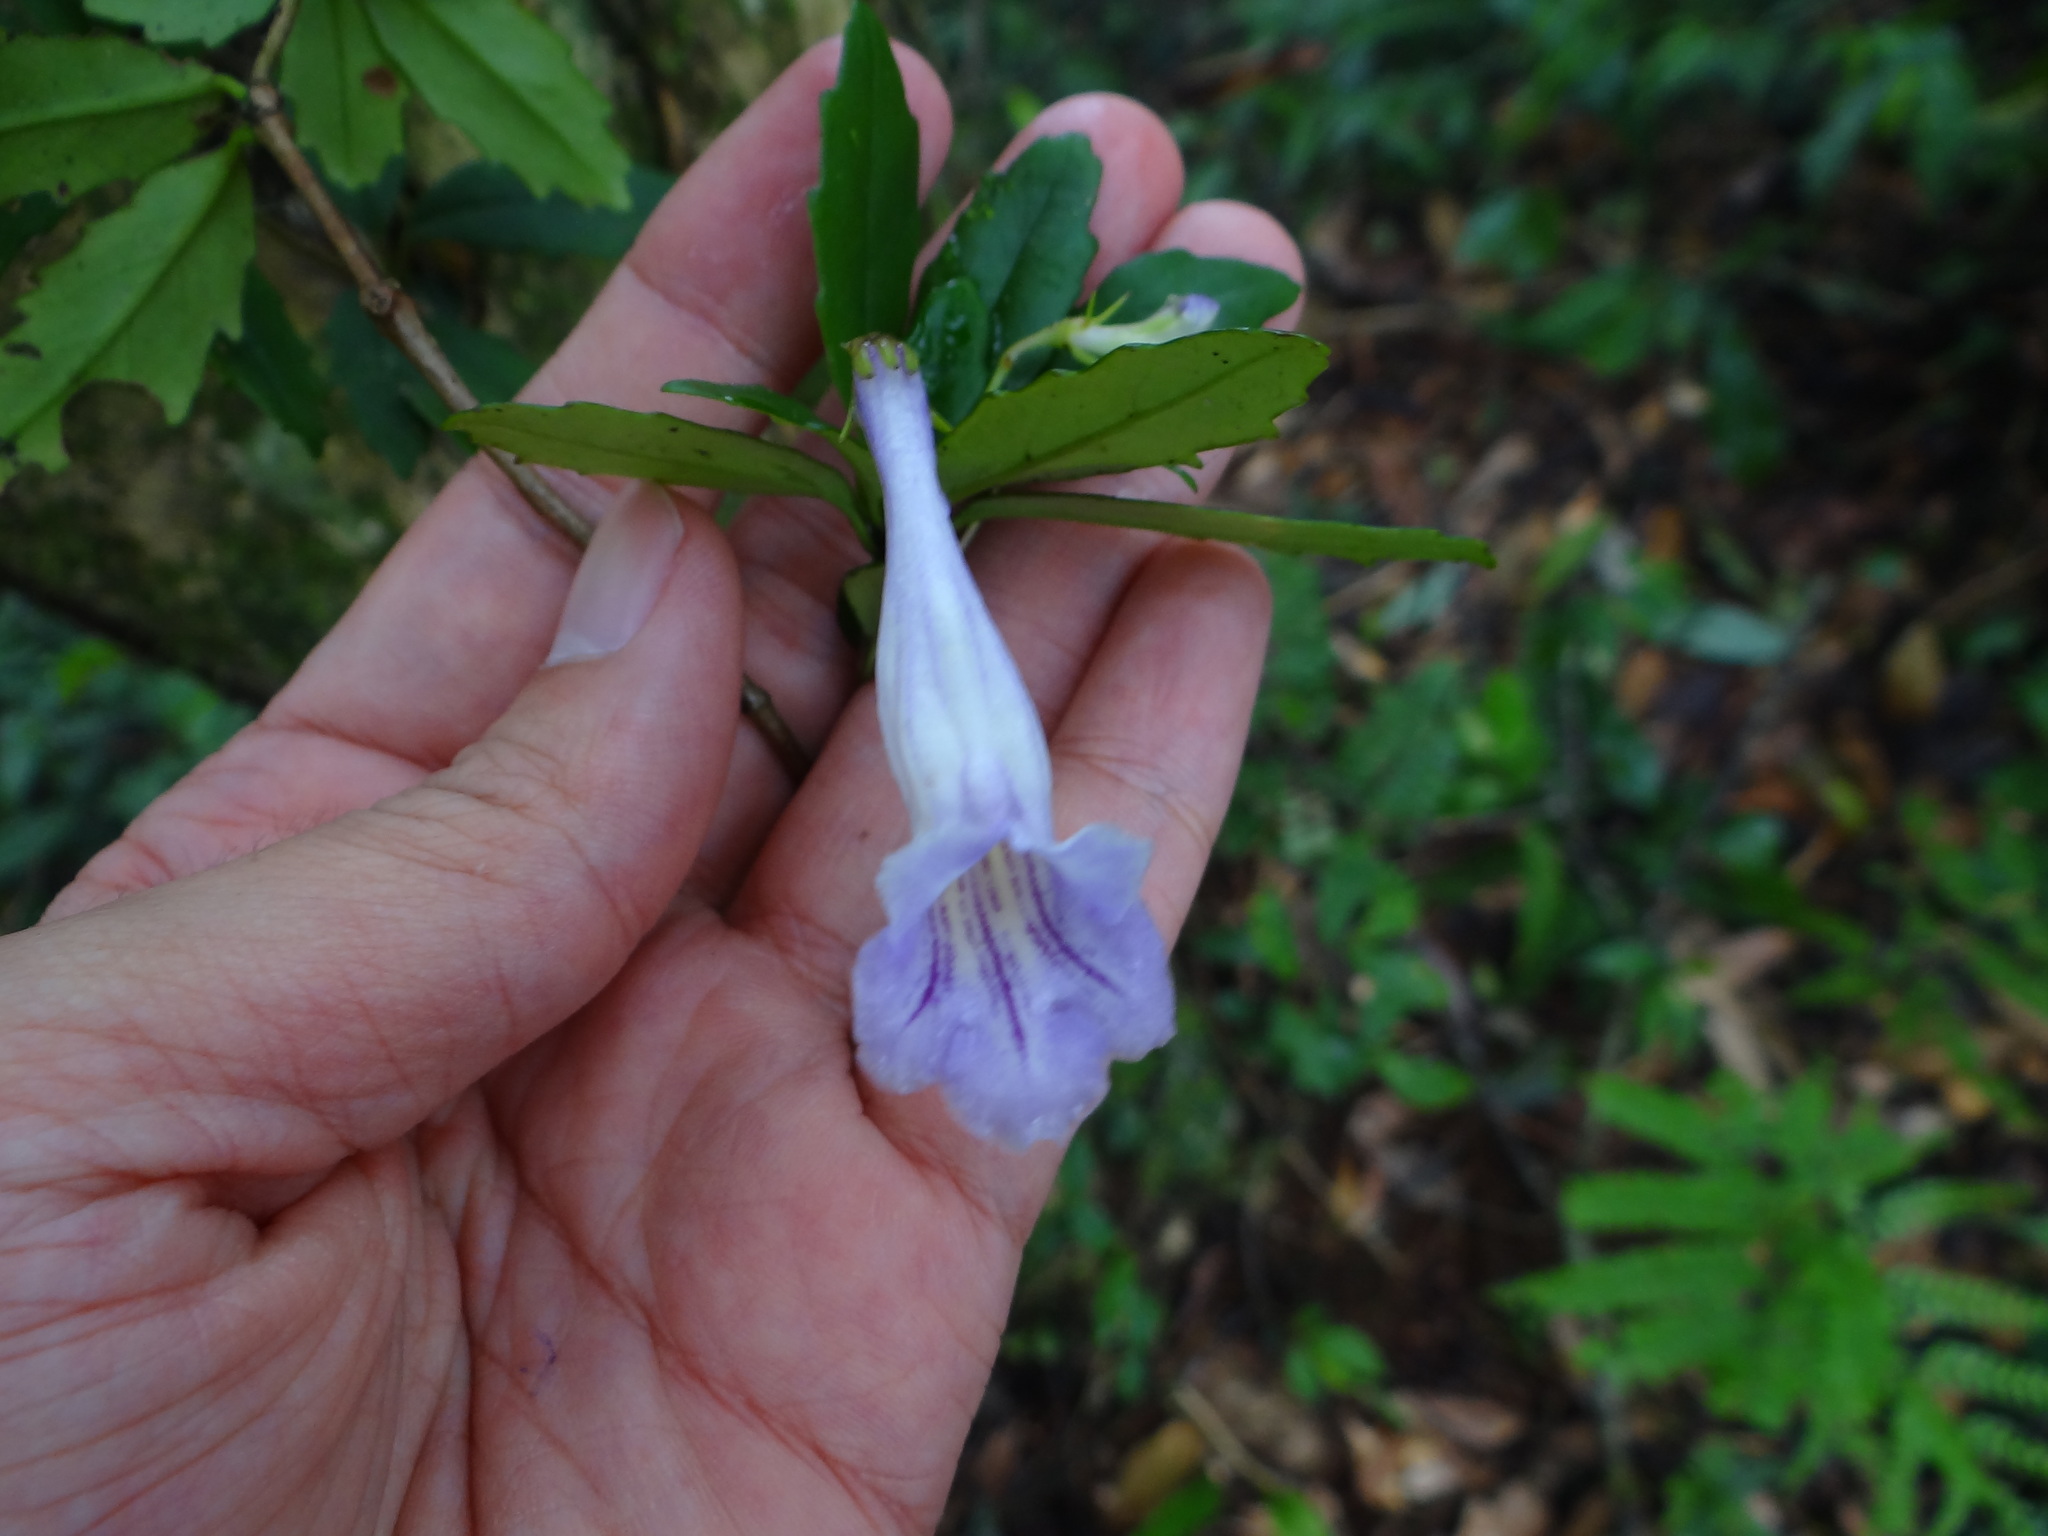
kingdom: Plantae
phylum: Tracheophyta
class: Magnoliopsida
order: Lamiales
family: Gesneriaceae
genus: Lysionotus
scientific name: Lysionotus pauciflorus
